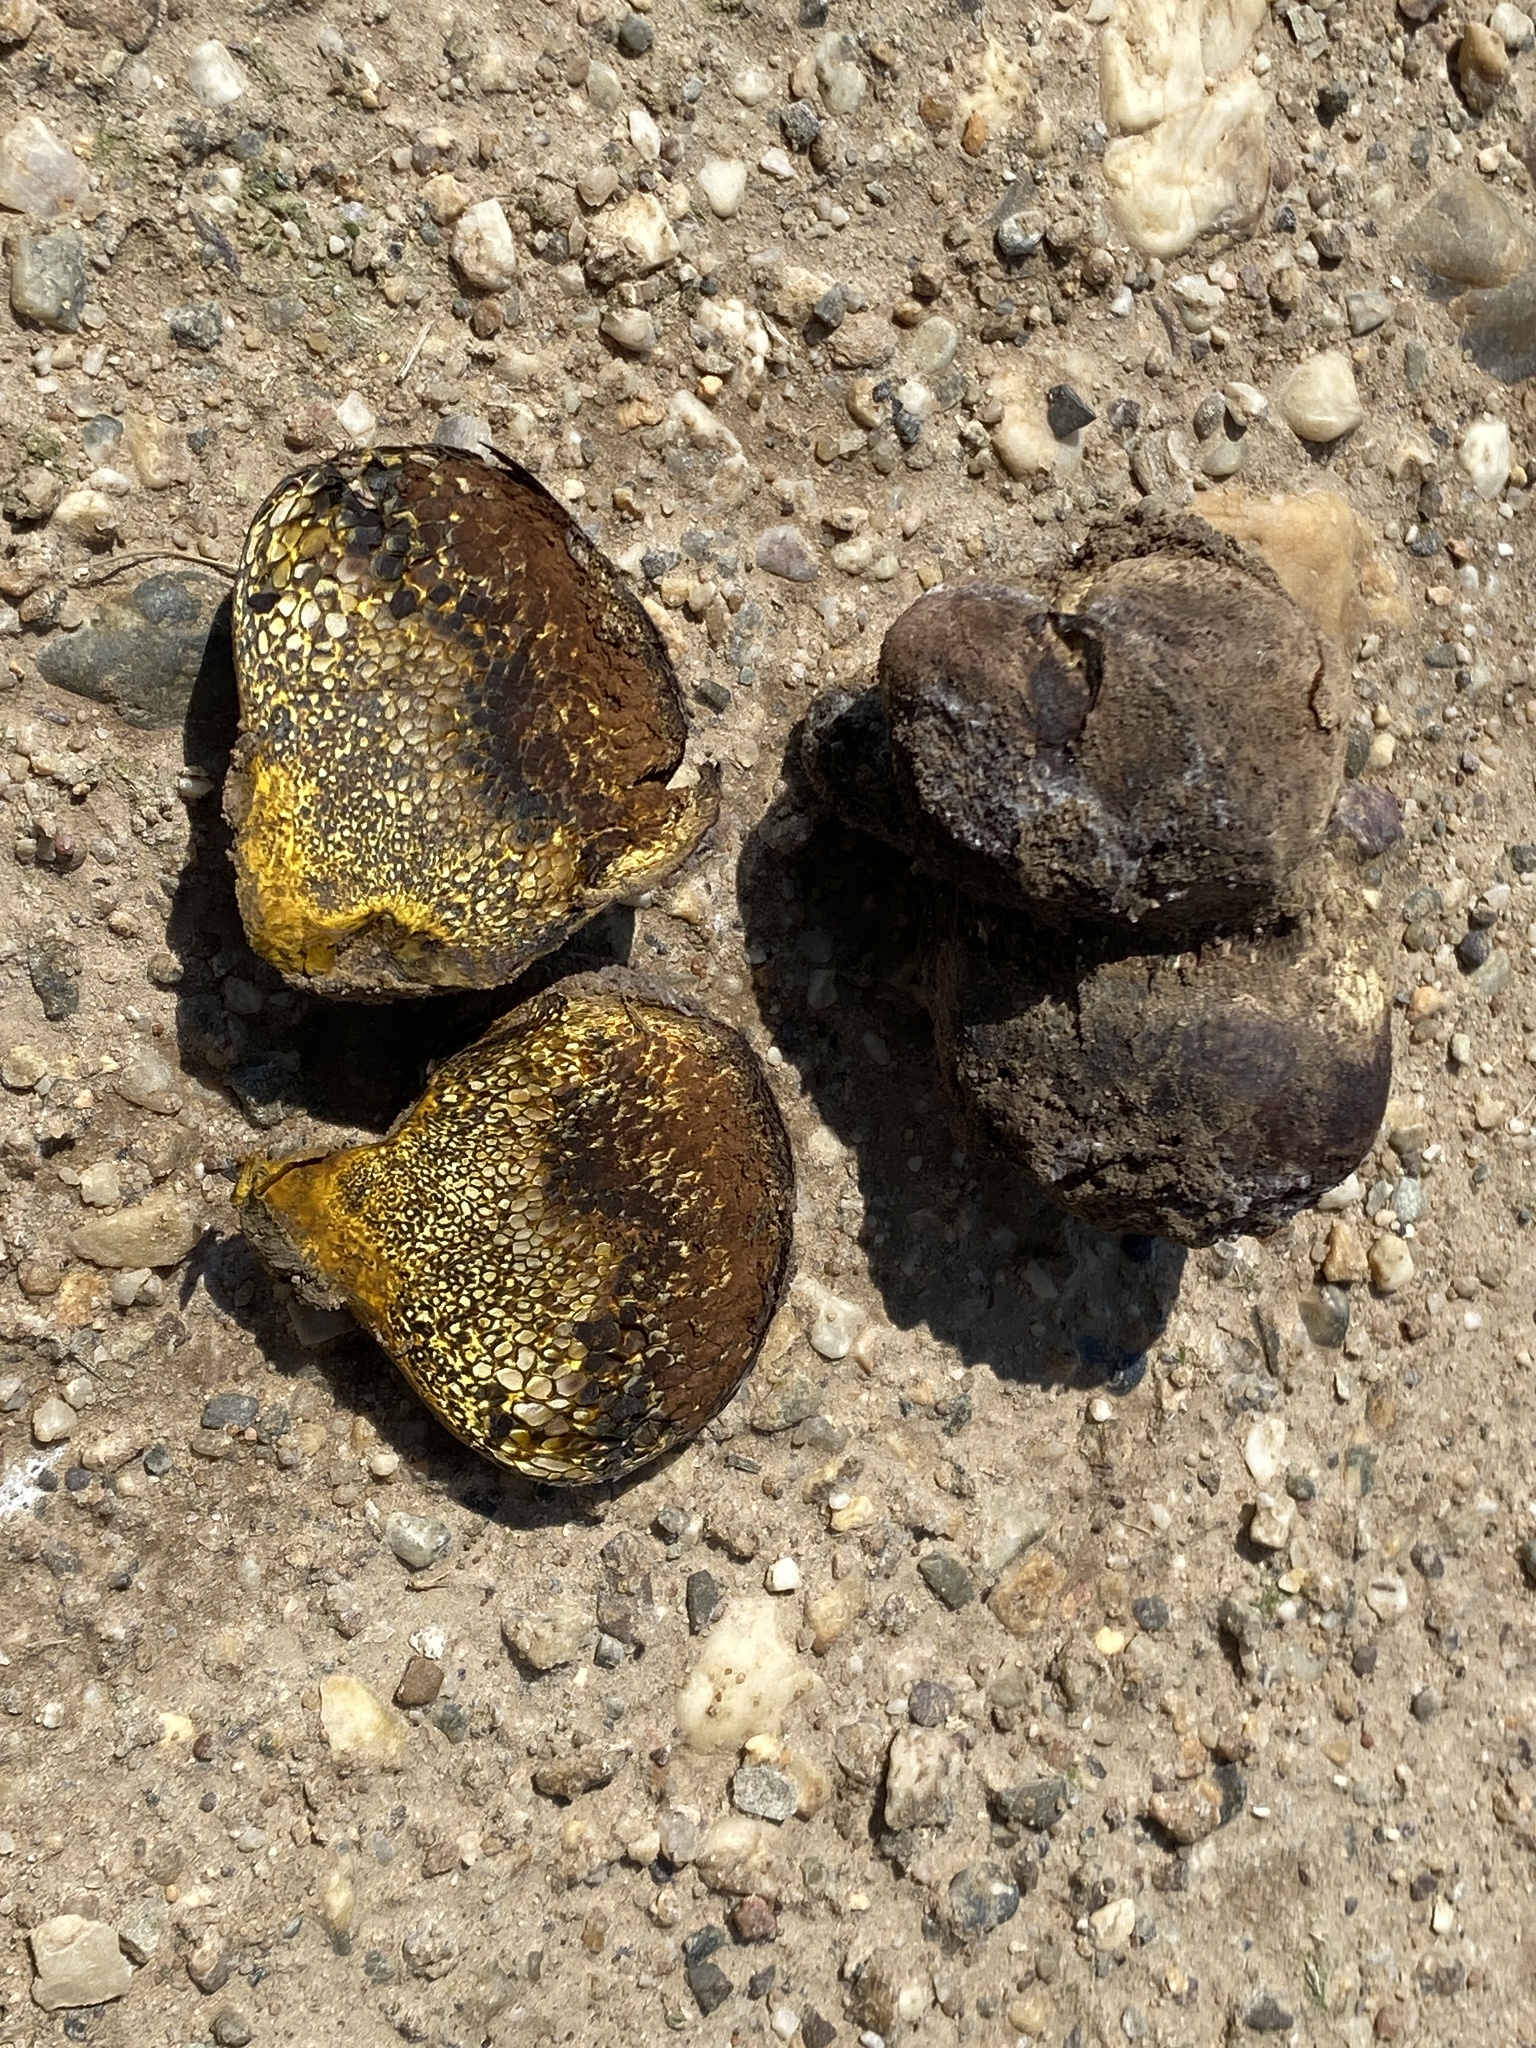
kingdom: Fungi
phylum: Basidiomycota
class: Agaricomycetes
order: Boletales
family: Sclerodermataceae
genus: Pisolithus
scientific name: Pisolithus arhizus
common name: Dyeball
